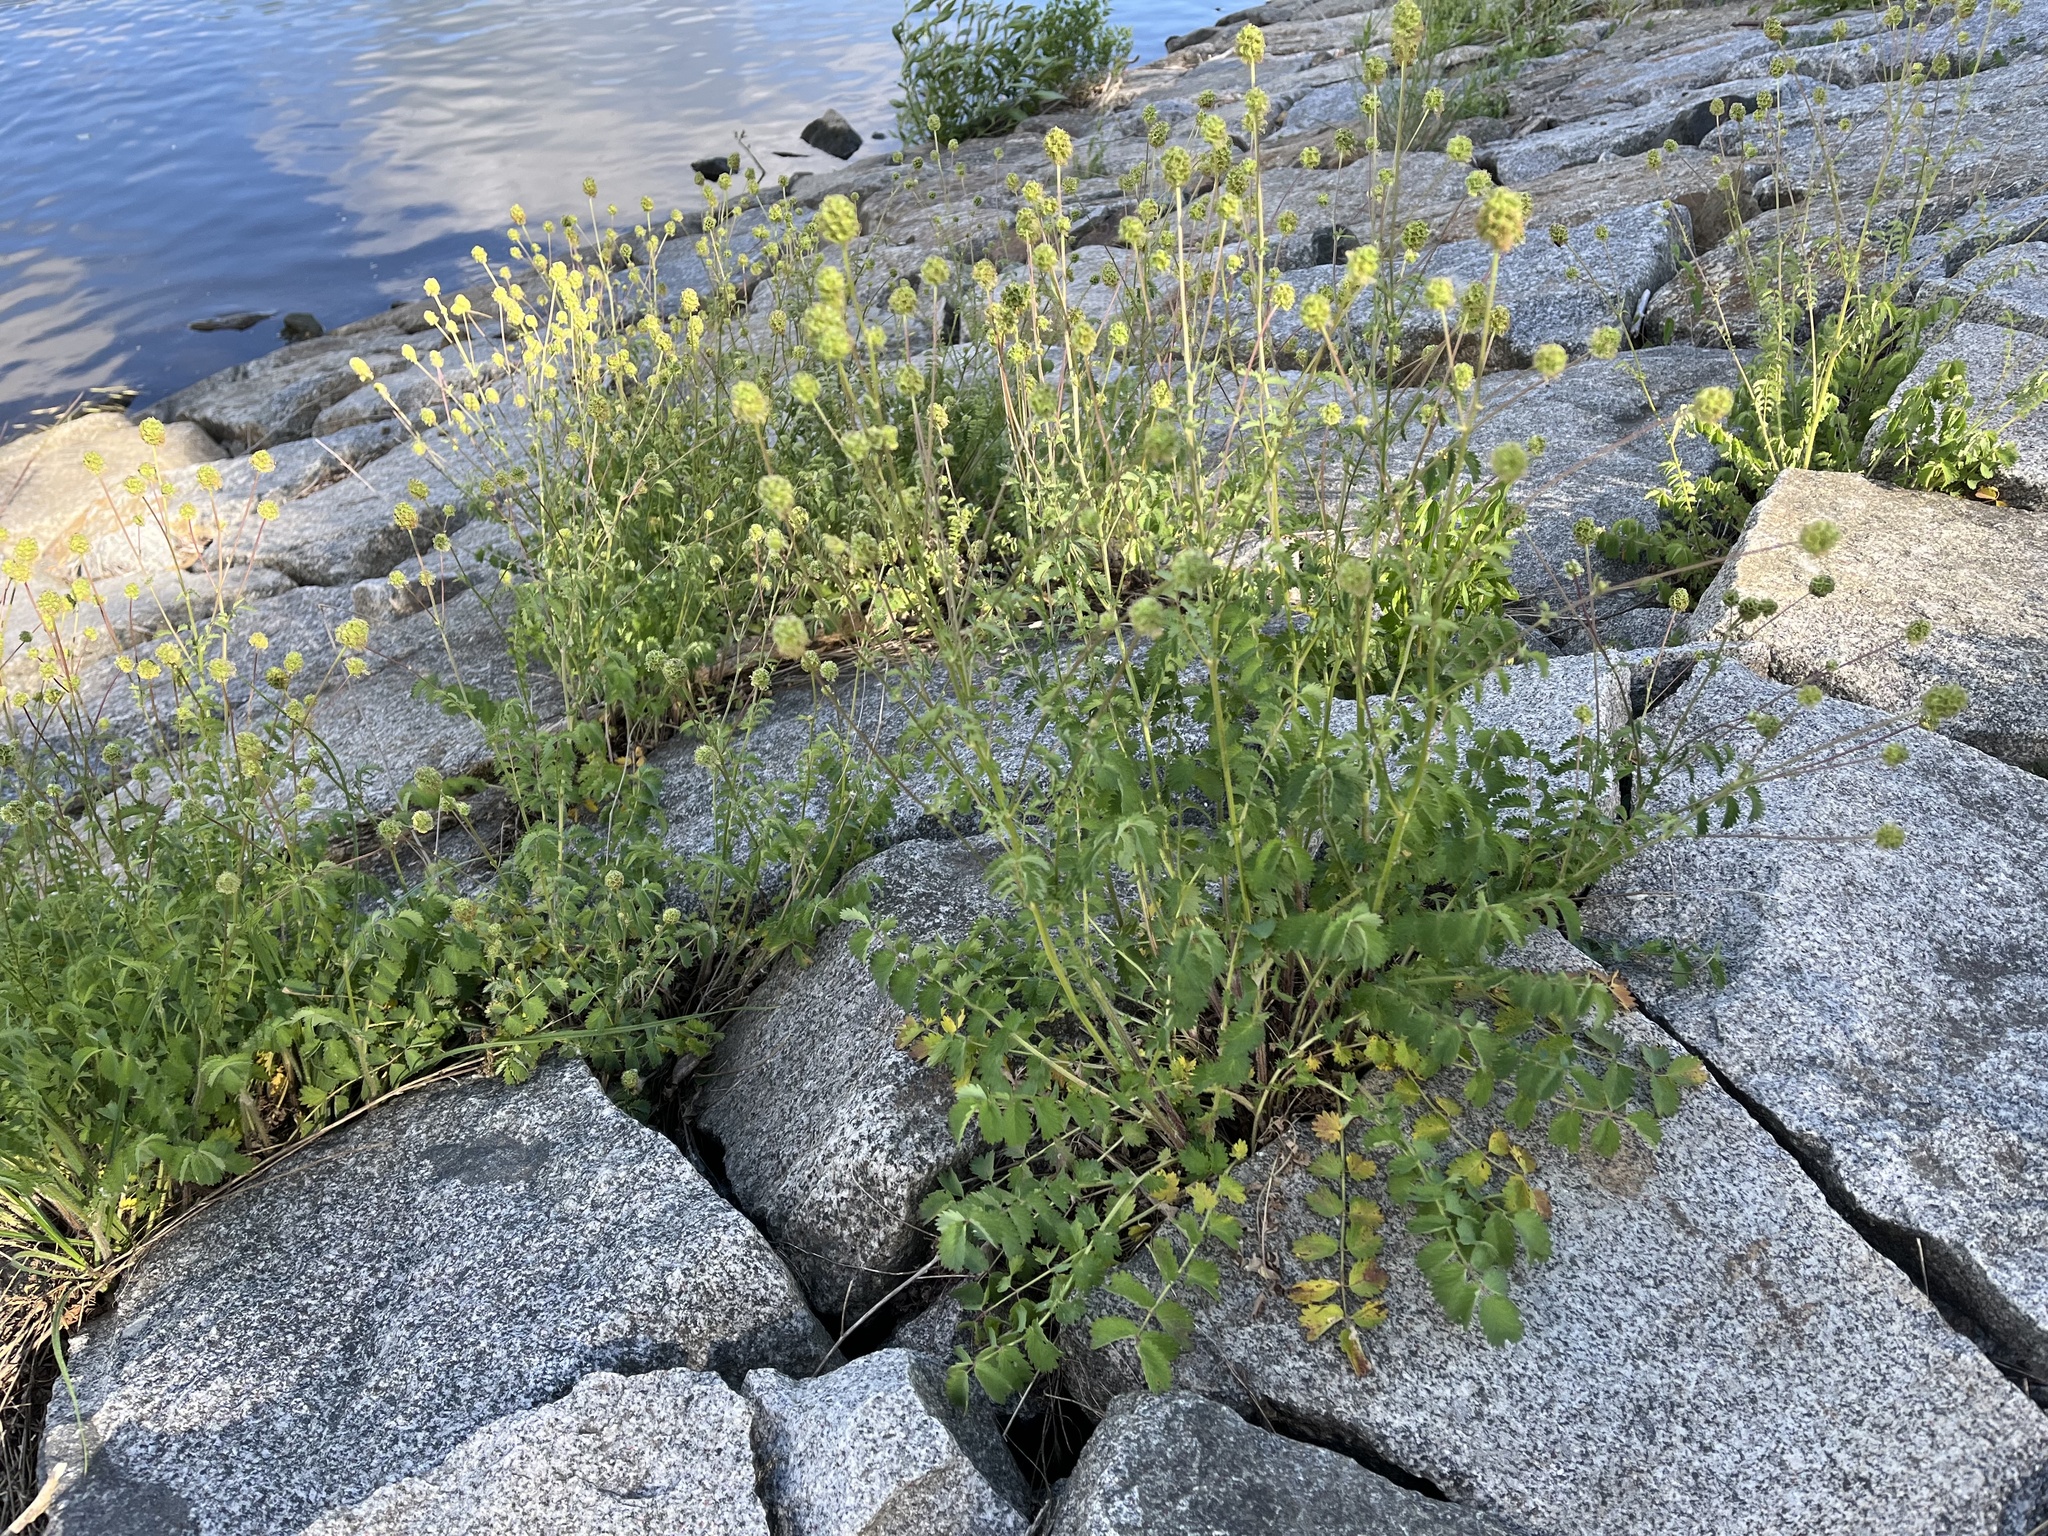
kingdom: Plantae
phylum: Tracheophyta
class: Magnoliopsida
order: Rosales
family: Rosaceae
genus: Poterium
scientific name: Poterium sanguisorba
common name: Salad burnet
